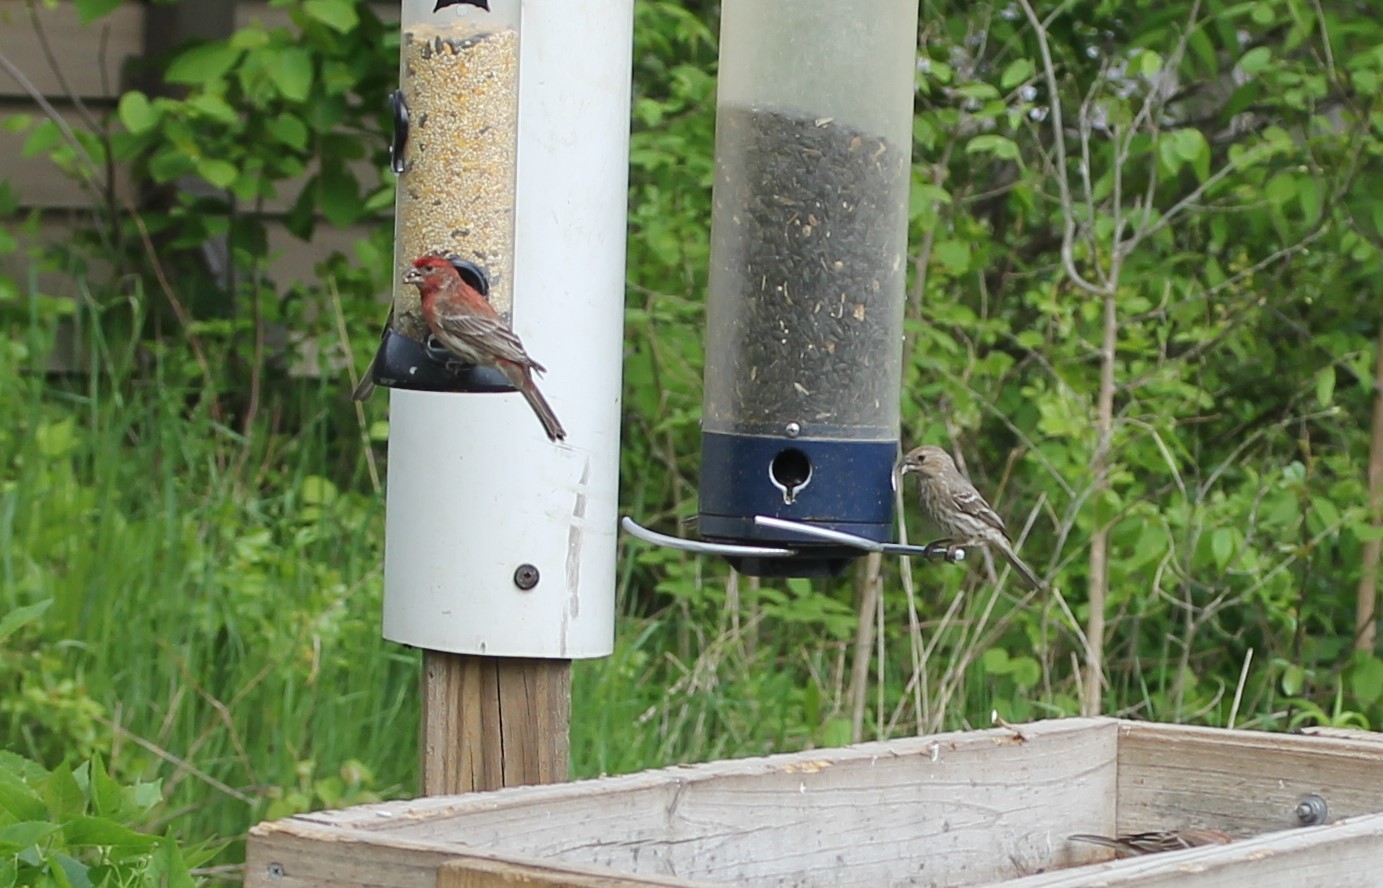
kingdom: Animalia
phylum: Chordata
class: Aves
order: Passeriformes
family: Fringillidae
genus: Haemorhous
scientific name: Haemorhous mexicanus
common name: House finch
